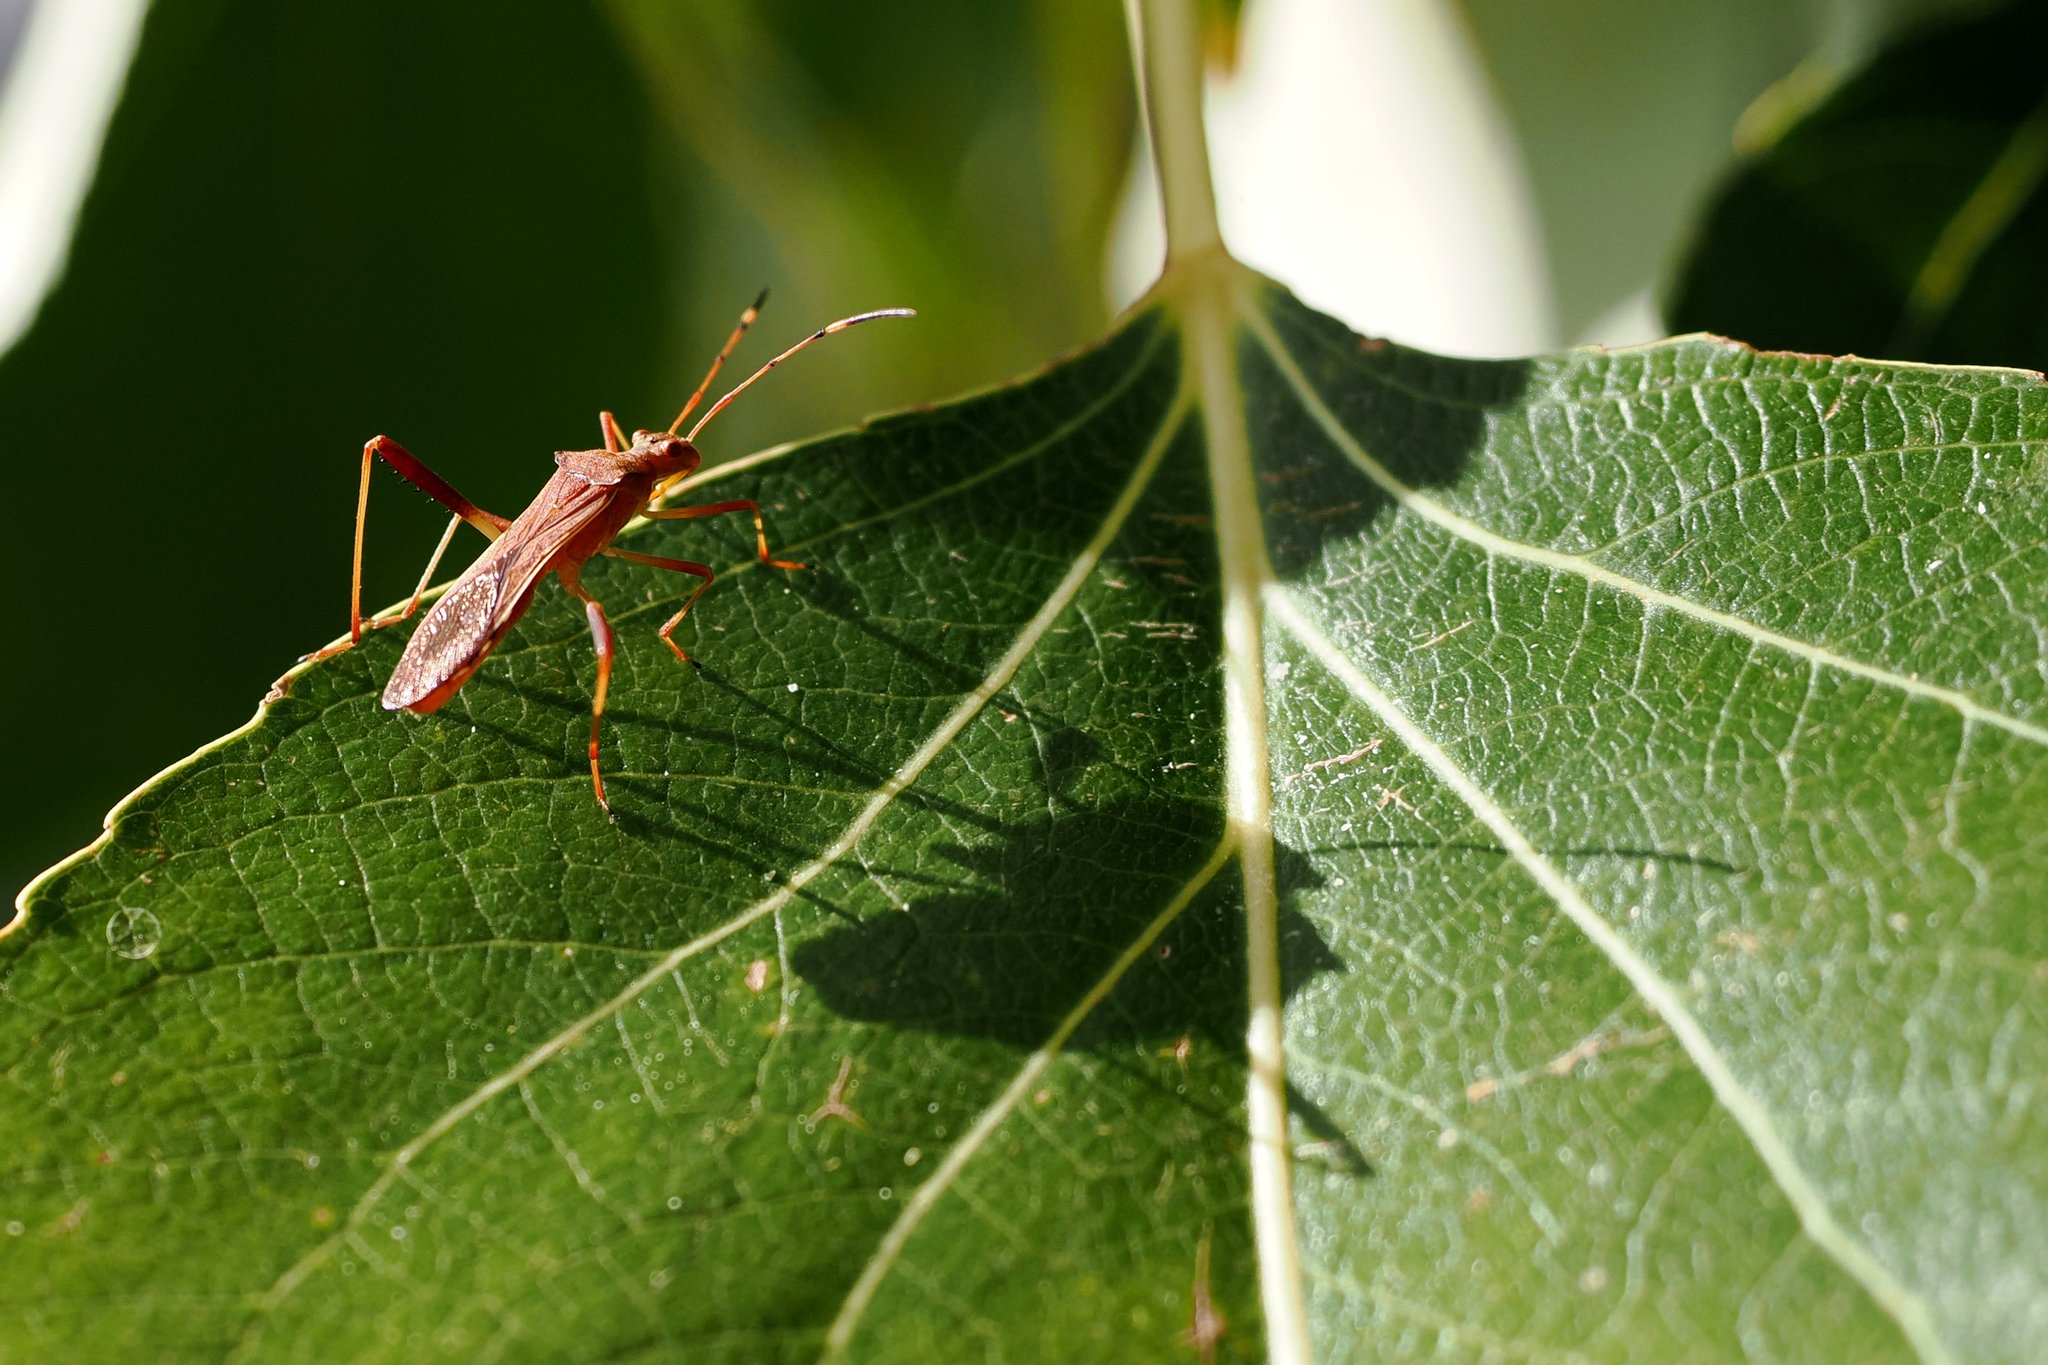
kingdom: Animalia
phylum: Arthropoda
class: Insecta
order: Hemiptera
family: Alydidae
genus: Megalotomus
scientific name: Megalotomus quinquespinosus
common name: Lupine bug
